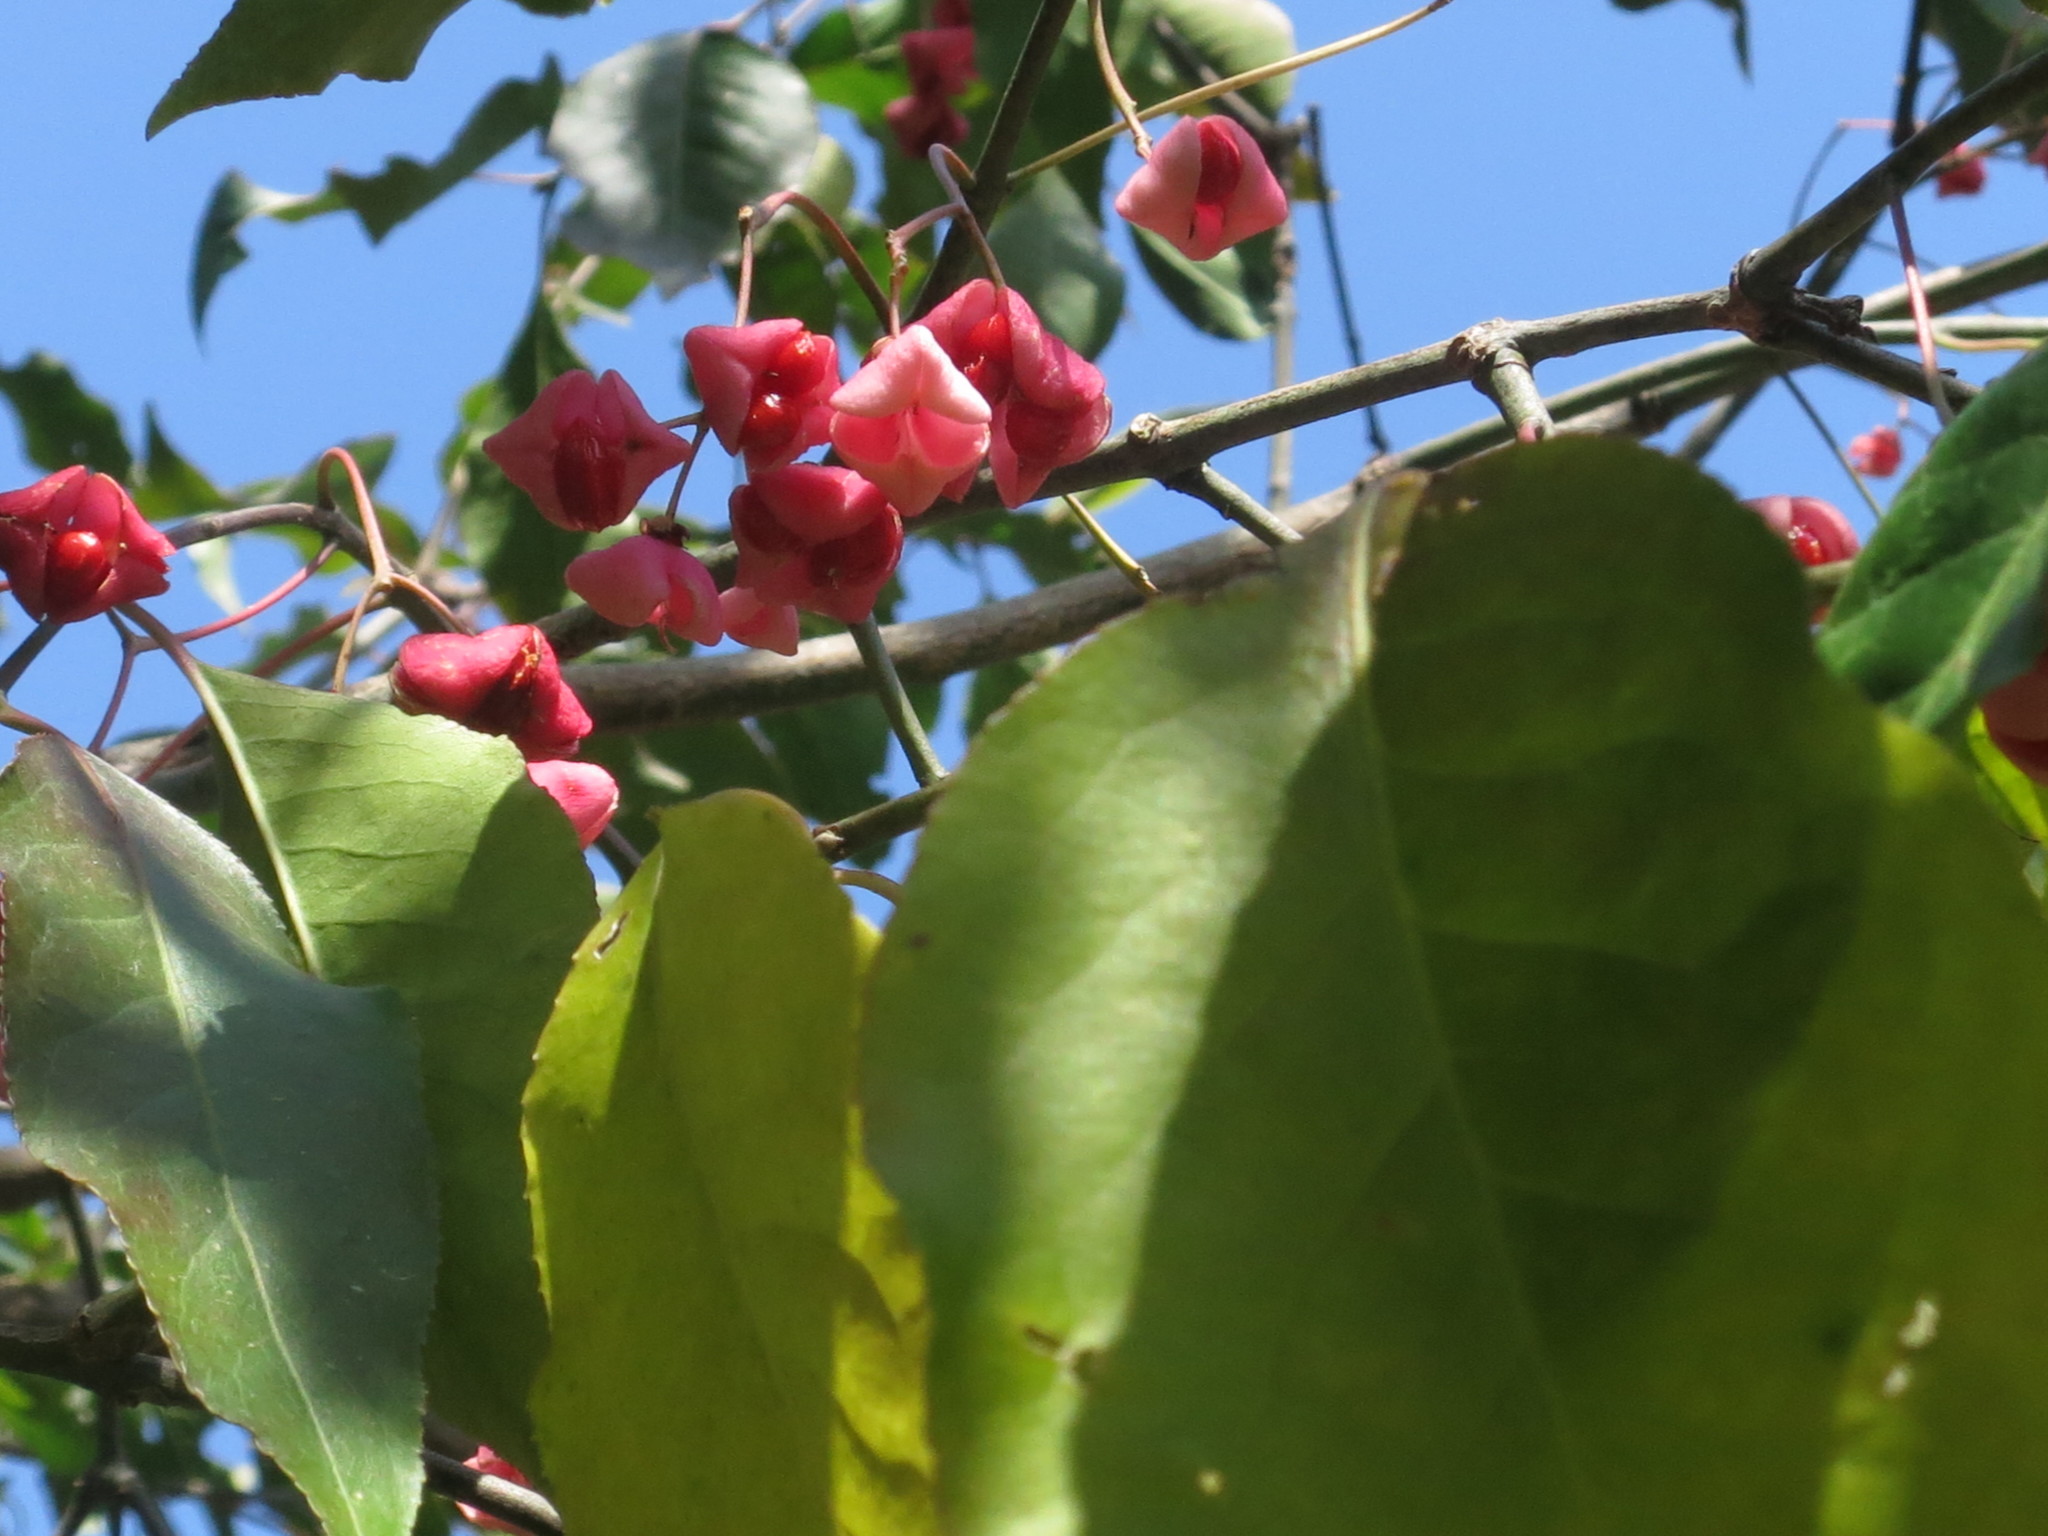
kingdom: Plantae
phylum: Tracheophyta
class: Magnoliopsida
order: Celastrales
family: Celastraceae
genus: Euonymus
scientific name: Euonymus maackii
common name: Hamilton's spindletree
